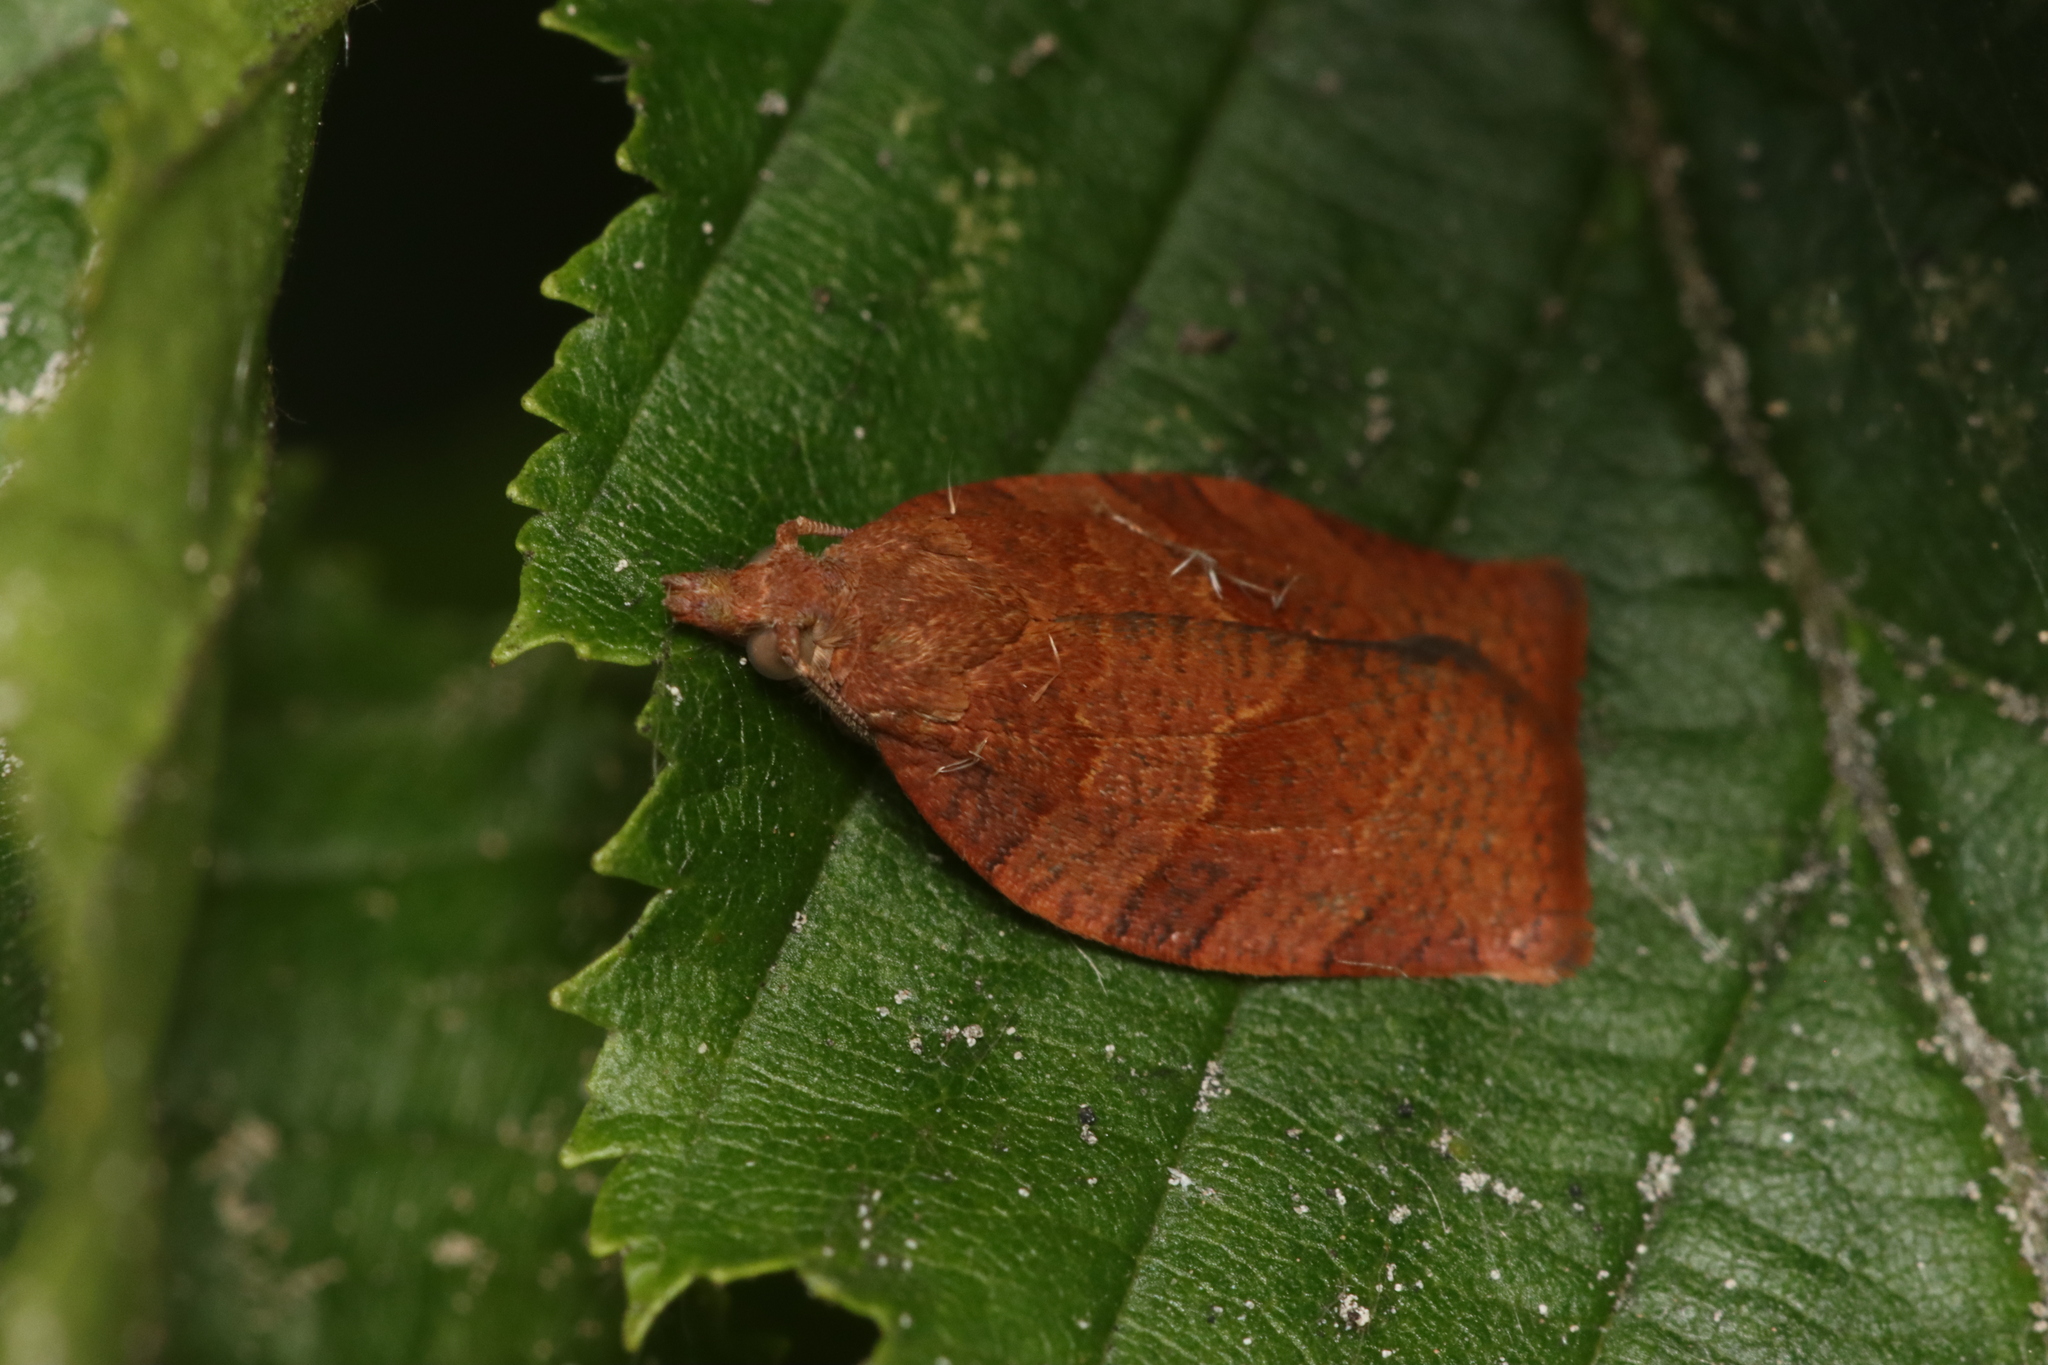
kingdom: Animalia
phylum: Arthropoda
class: Insecta
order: Lepidoptera
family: Tortricidae
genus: Pandemis
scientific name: Pandemis heparana
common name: Dark fruit-tree tortrix
